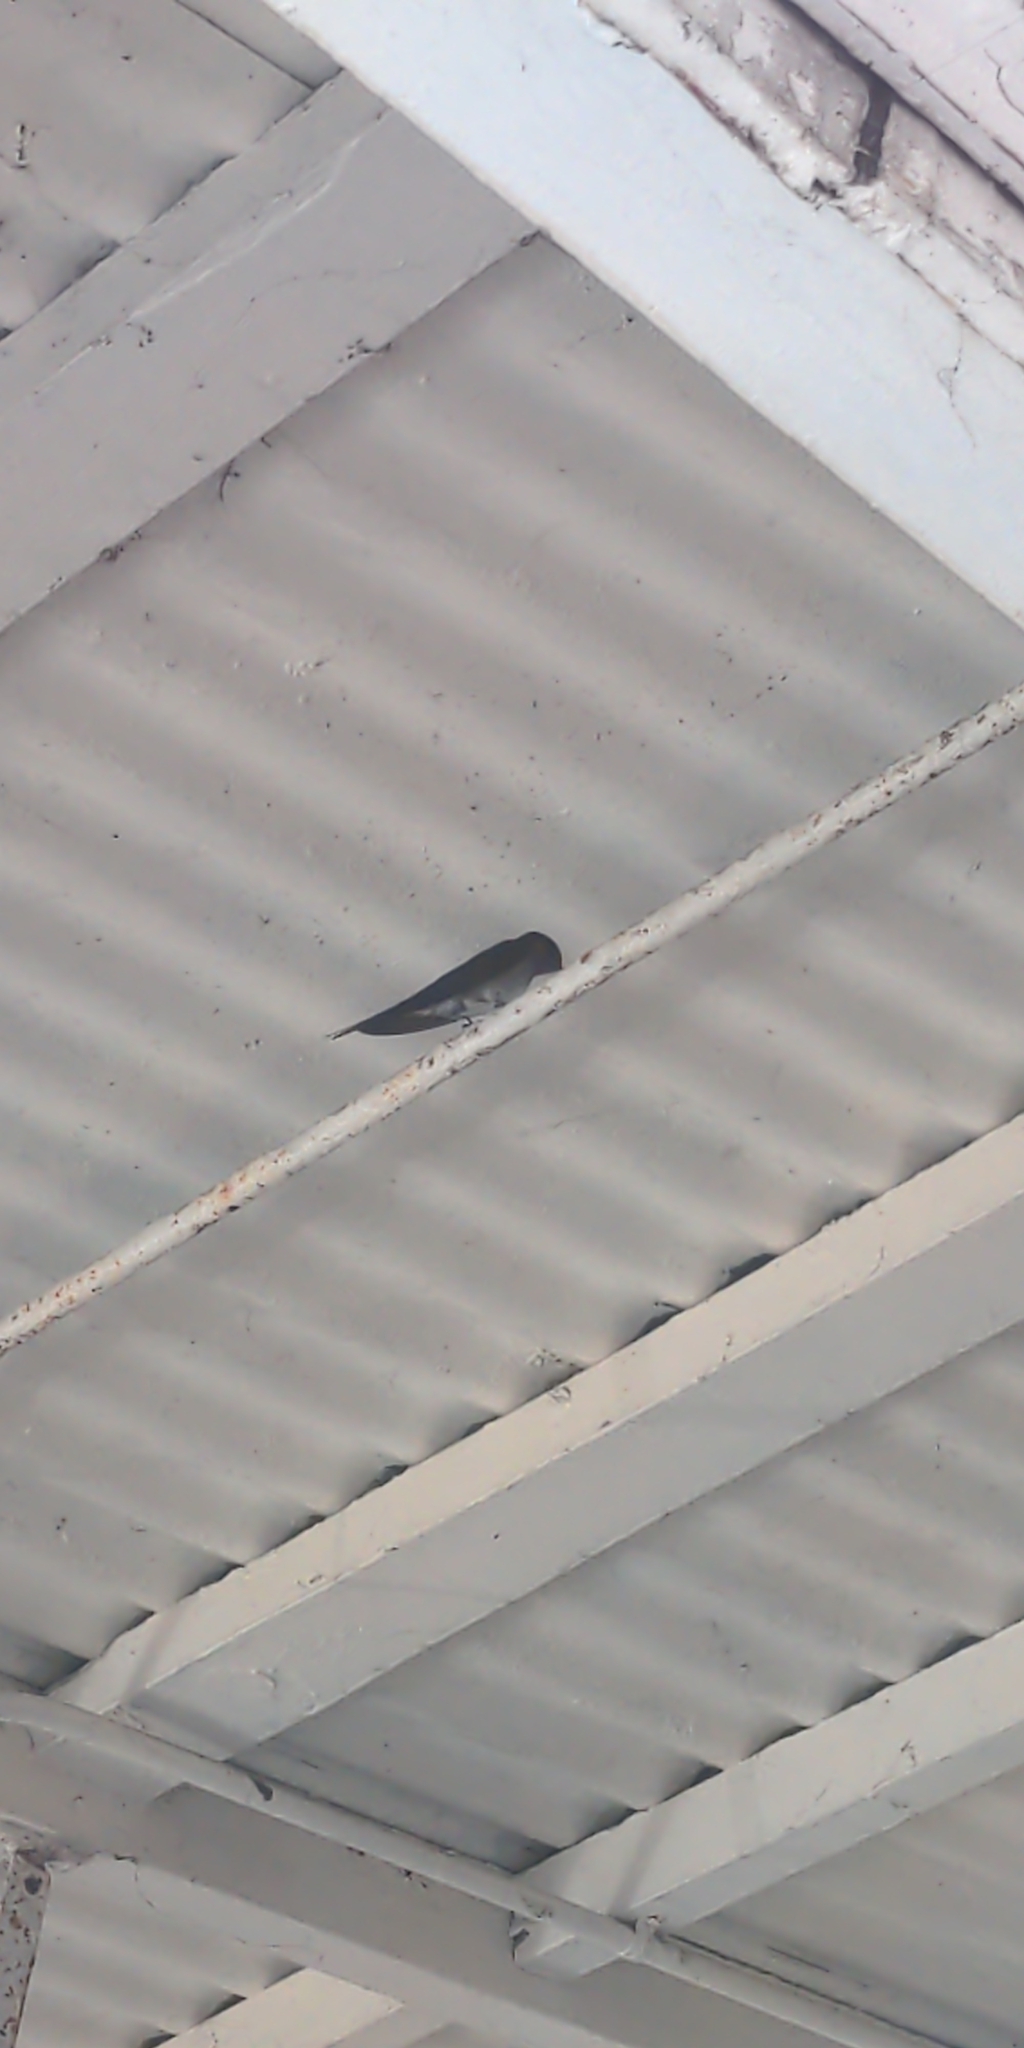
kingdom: Animalia
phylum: Chordata
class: Aves
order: Passeriformes
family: Hirundinidae
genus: Hirundo
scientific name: Hirundo neoxena
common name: Welcome swallow
